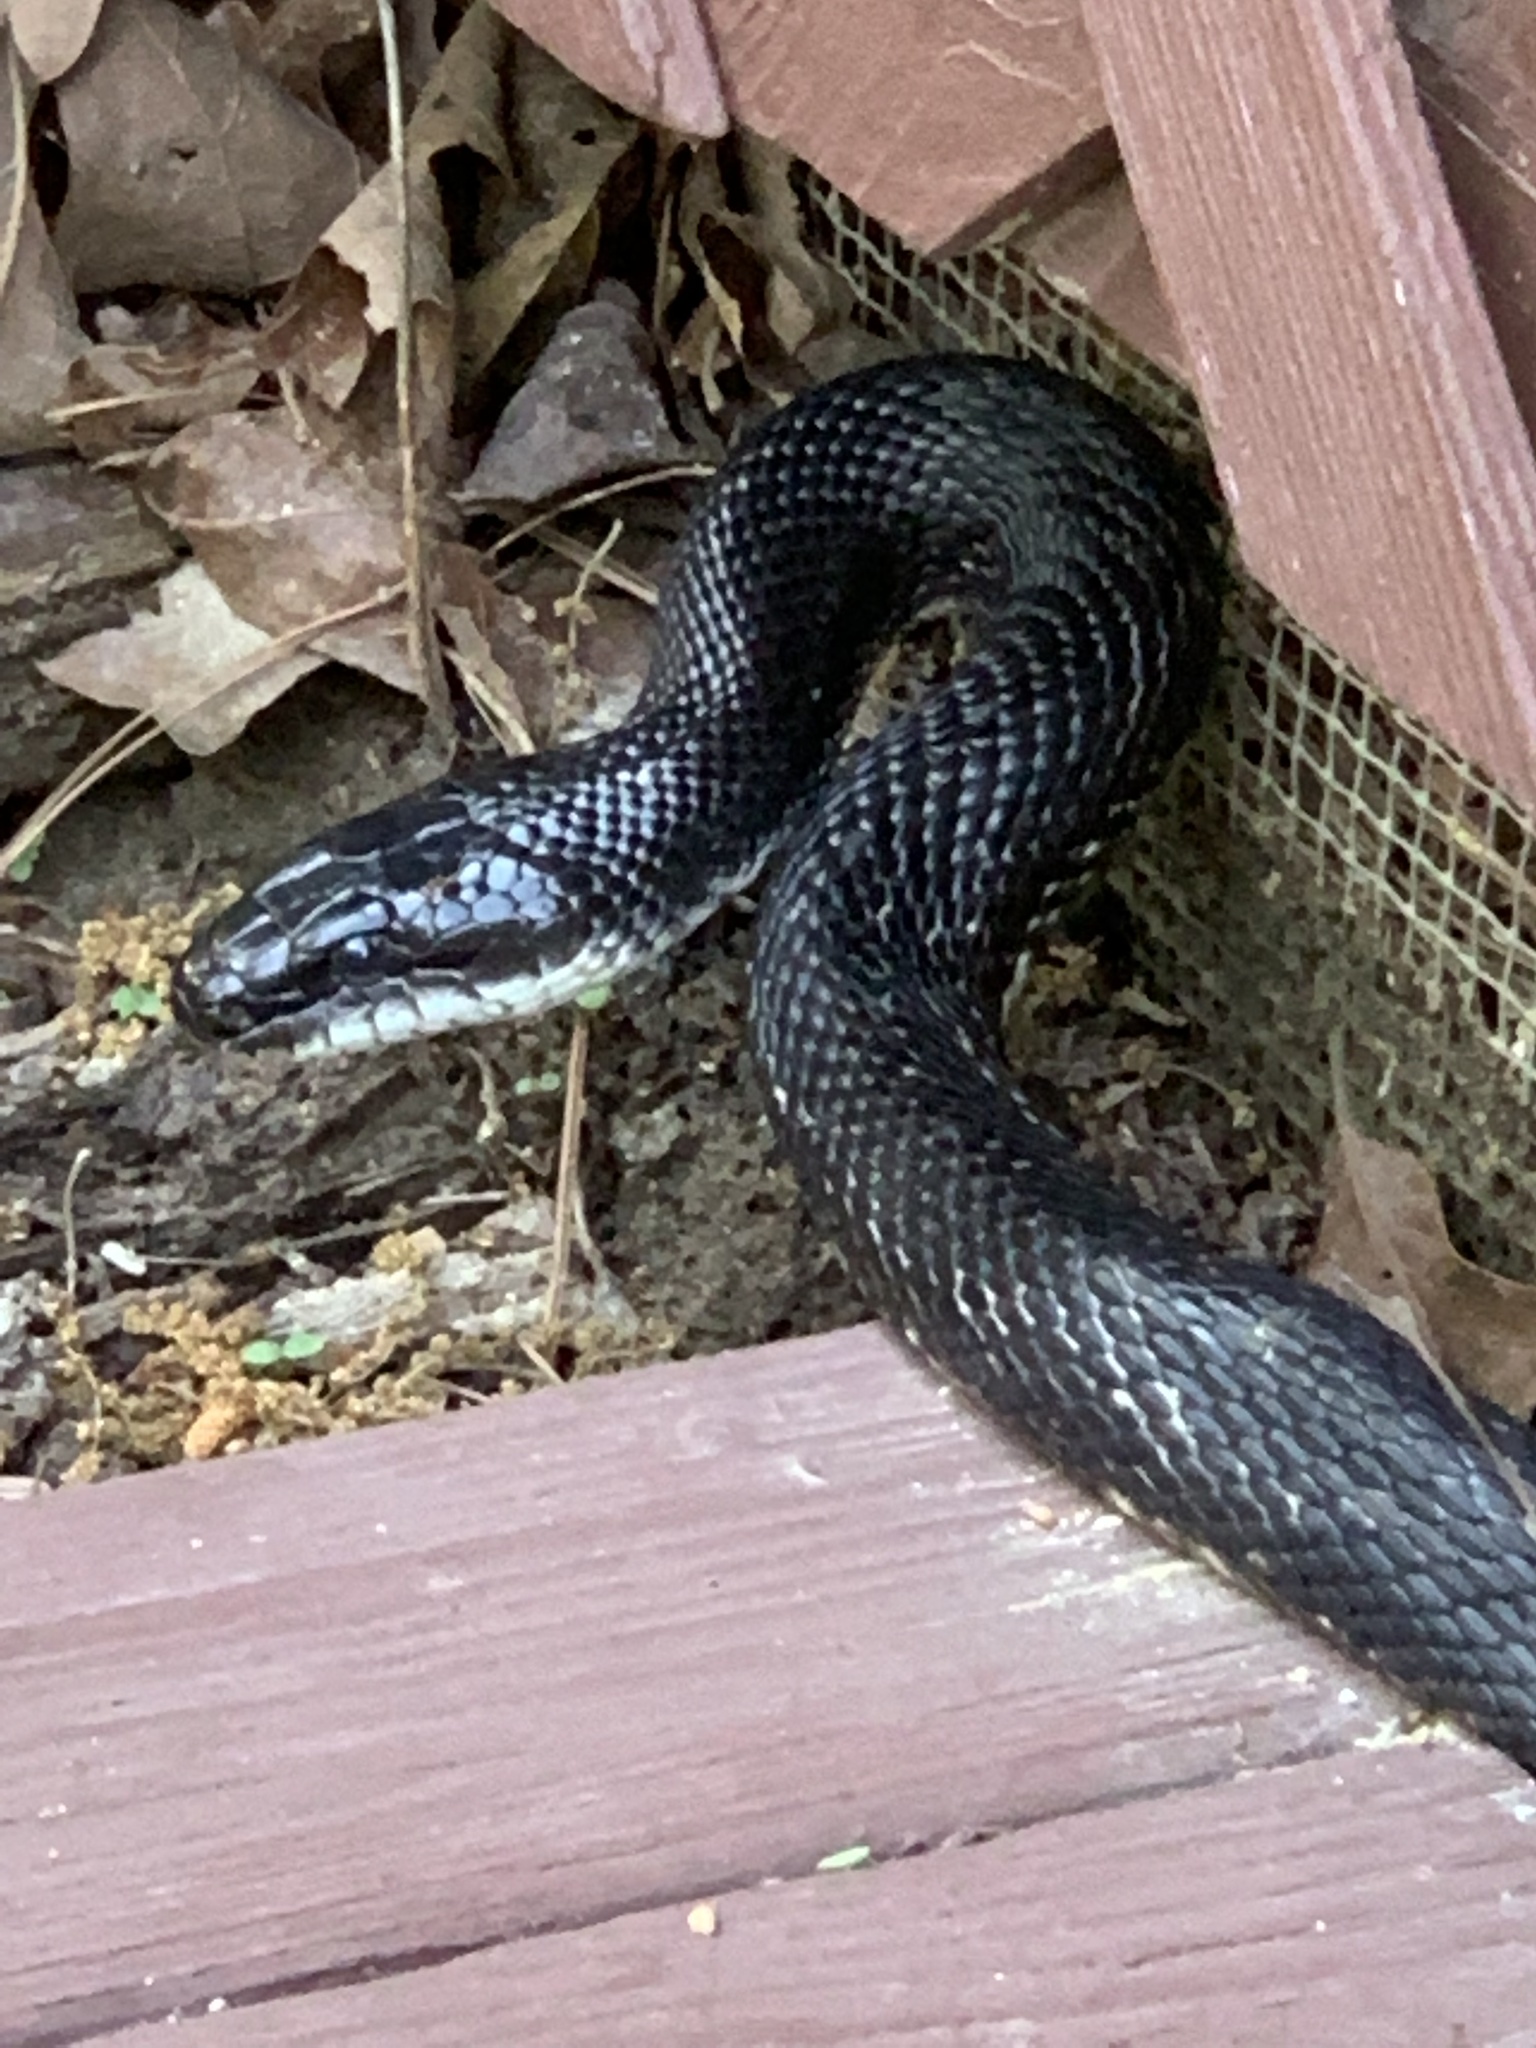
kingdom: Animalia
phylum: Chordata
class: Squamata
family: Colubridae
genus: Pantherophis
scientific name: Pantherophis obsoletus
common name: Black rat snake
